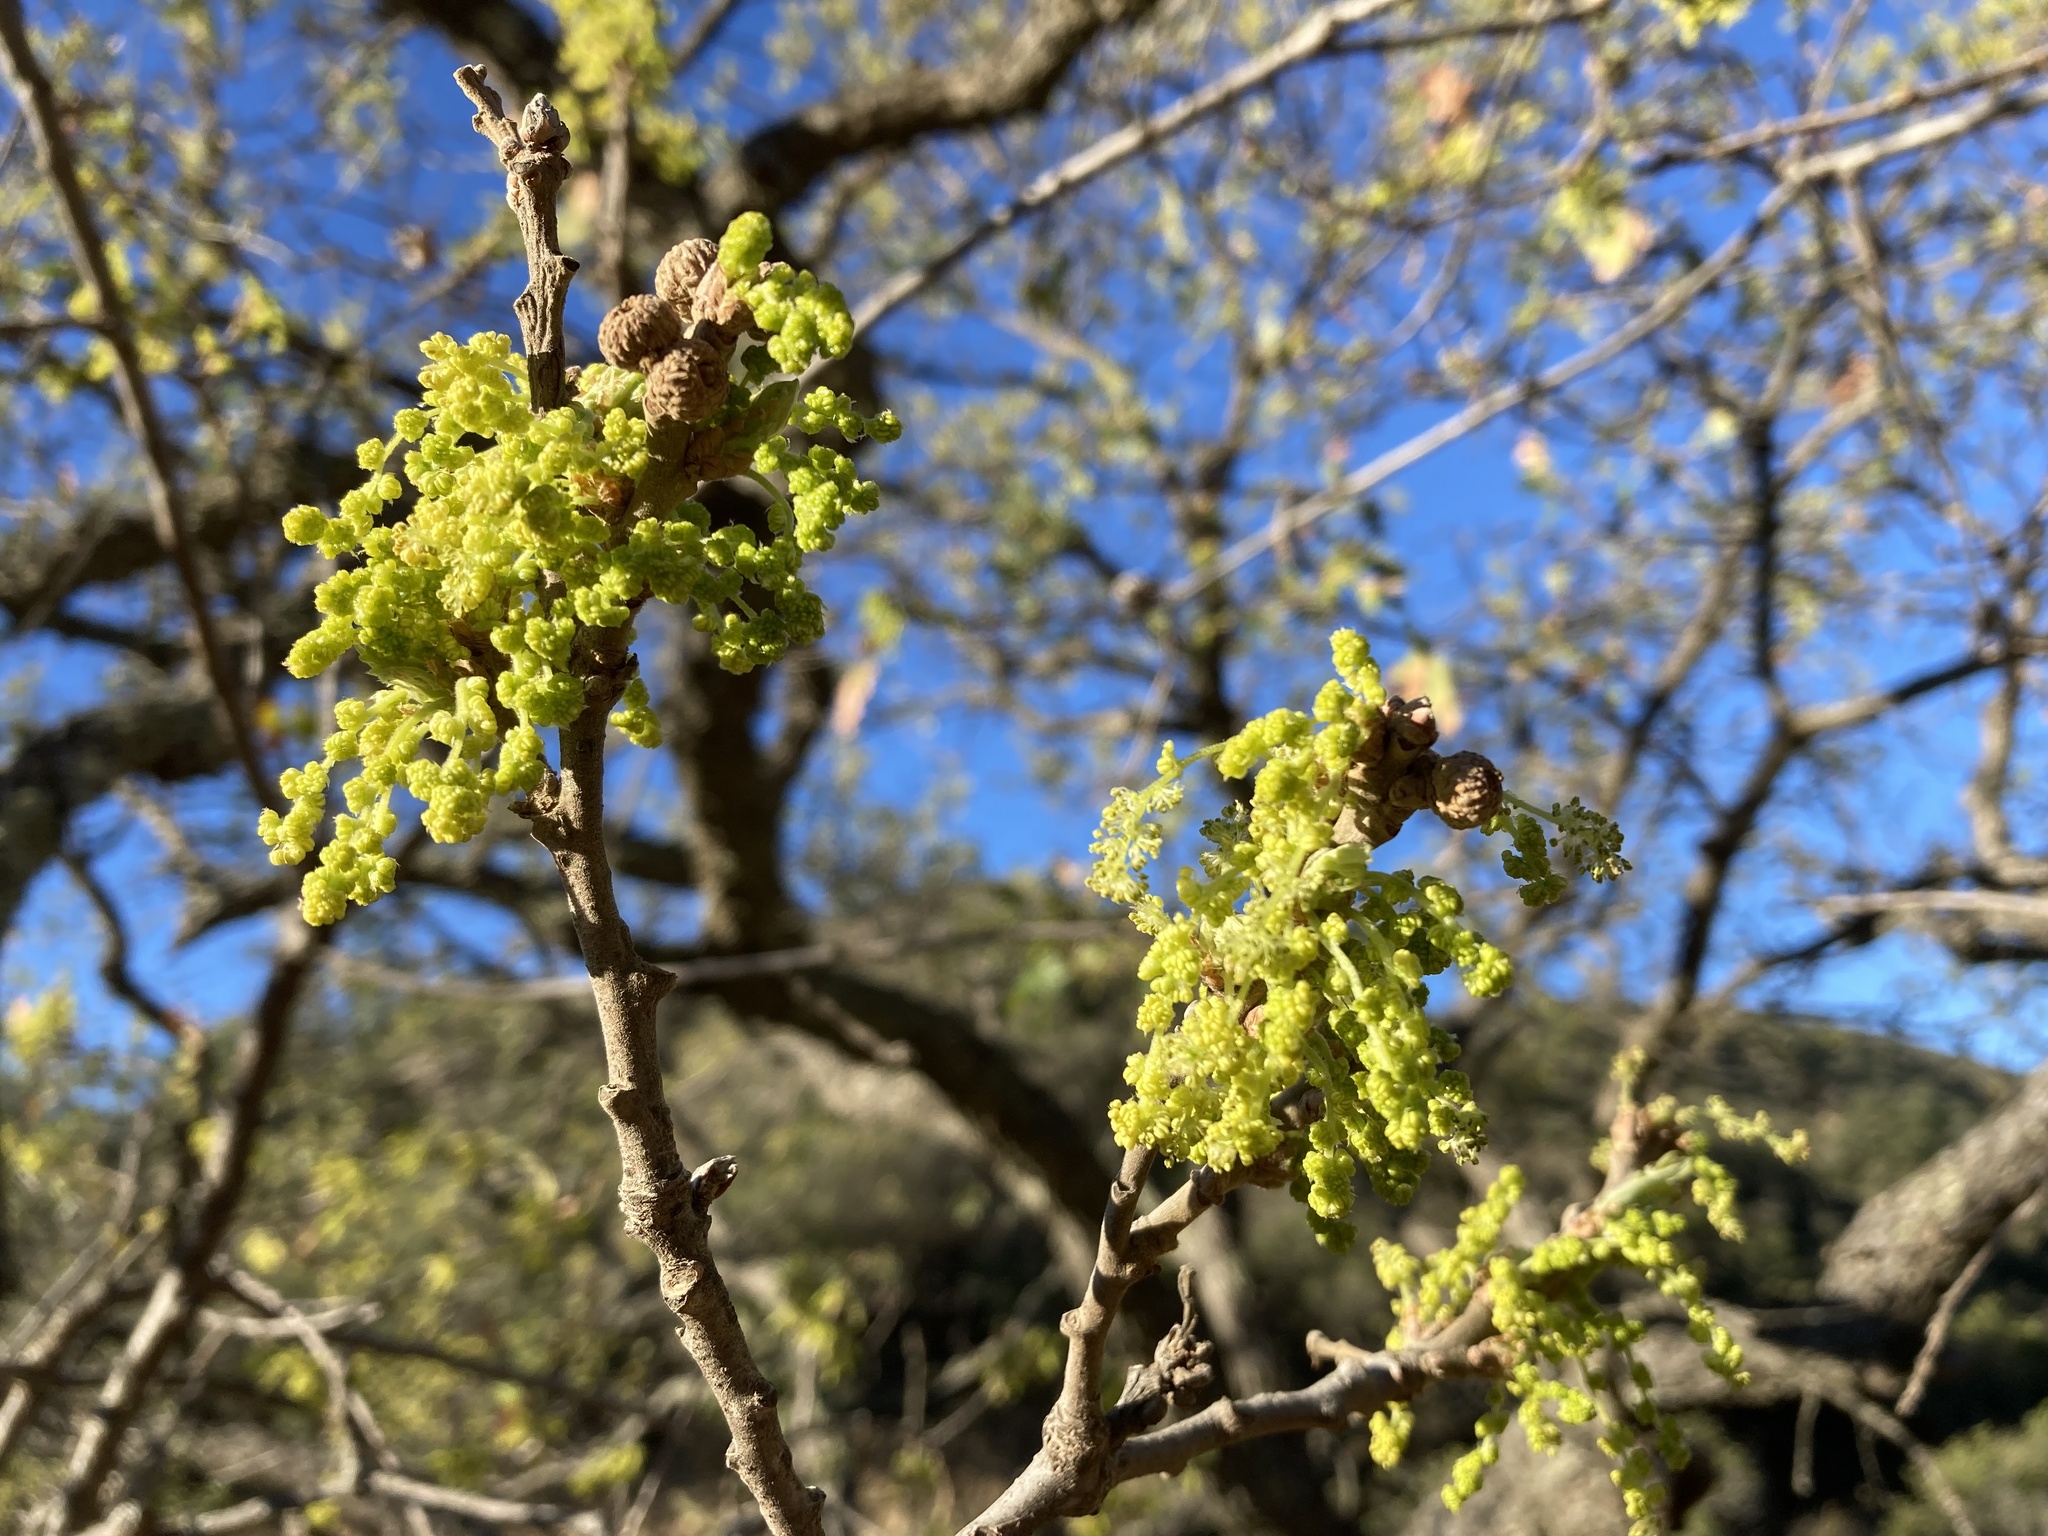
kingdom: Plantae
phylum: Tracheophyta
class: Magnoliopsida
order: Fagales
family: Fagaceae
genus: Quercus
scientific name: Quercus lobata
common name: Valley oak
